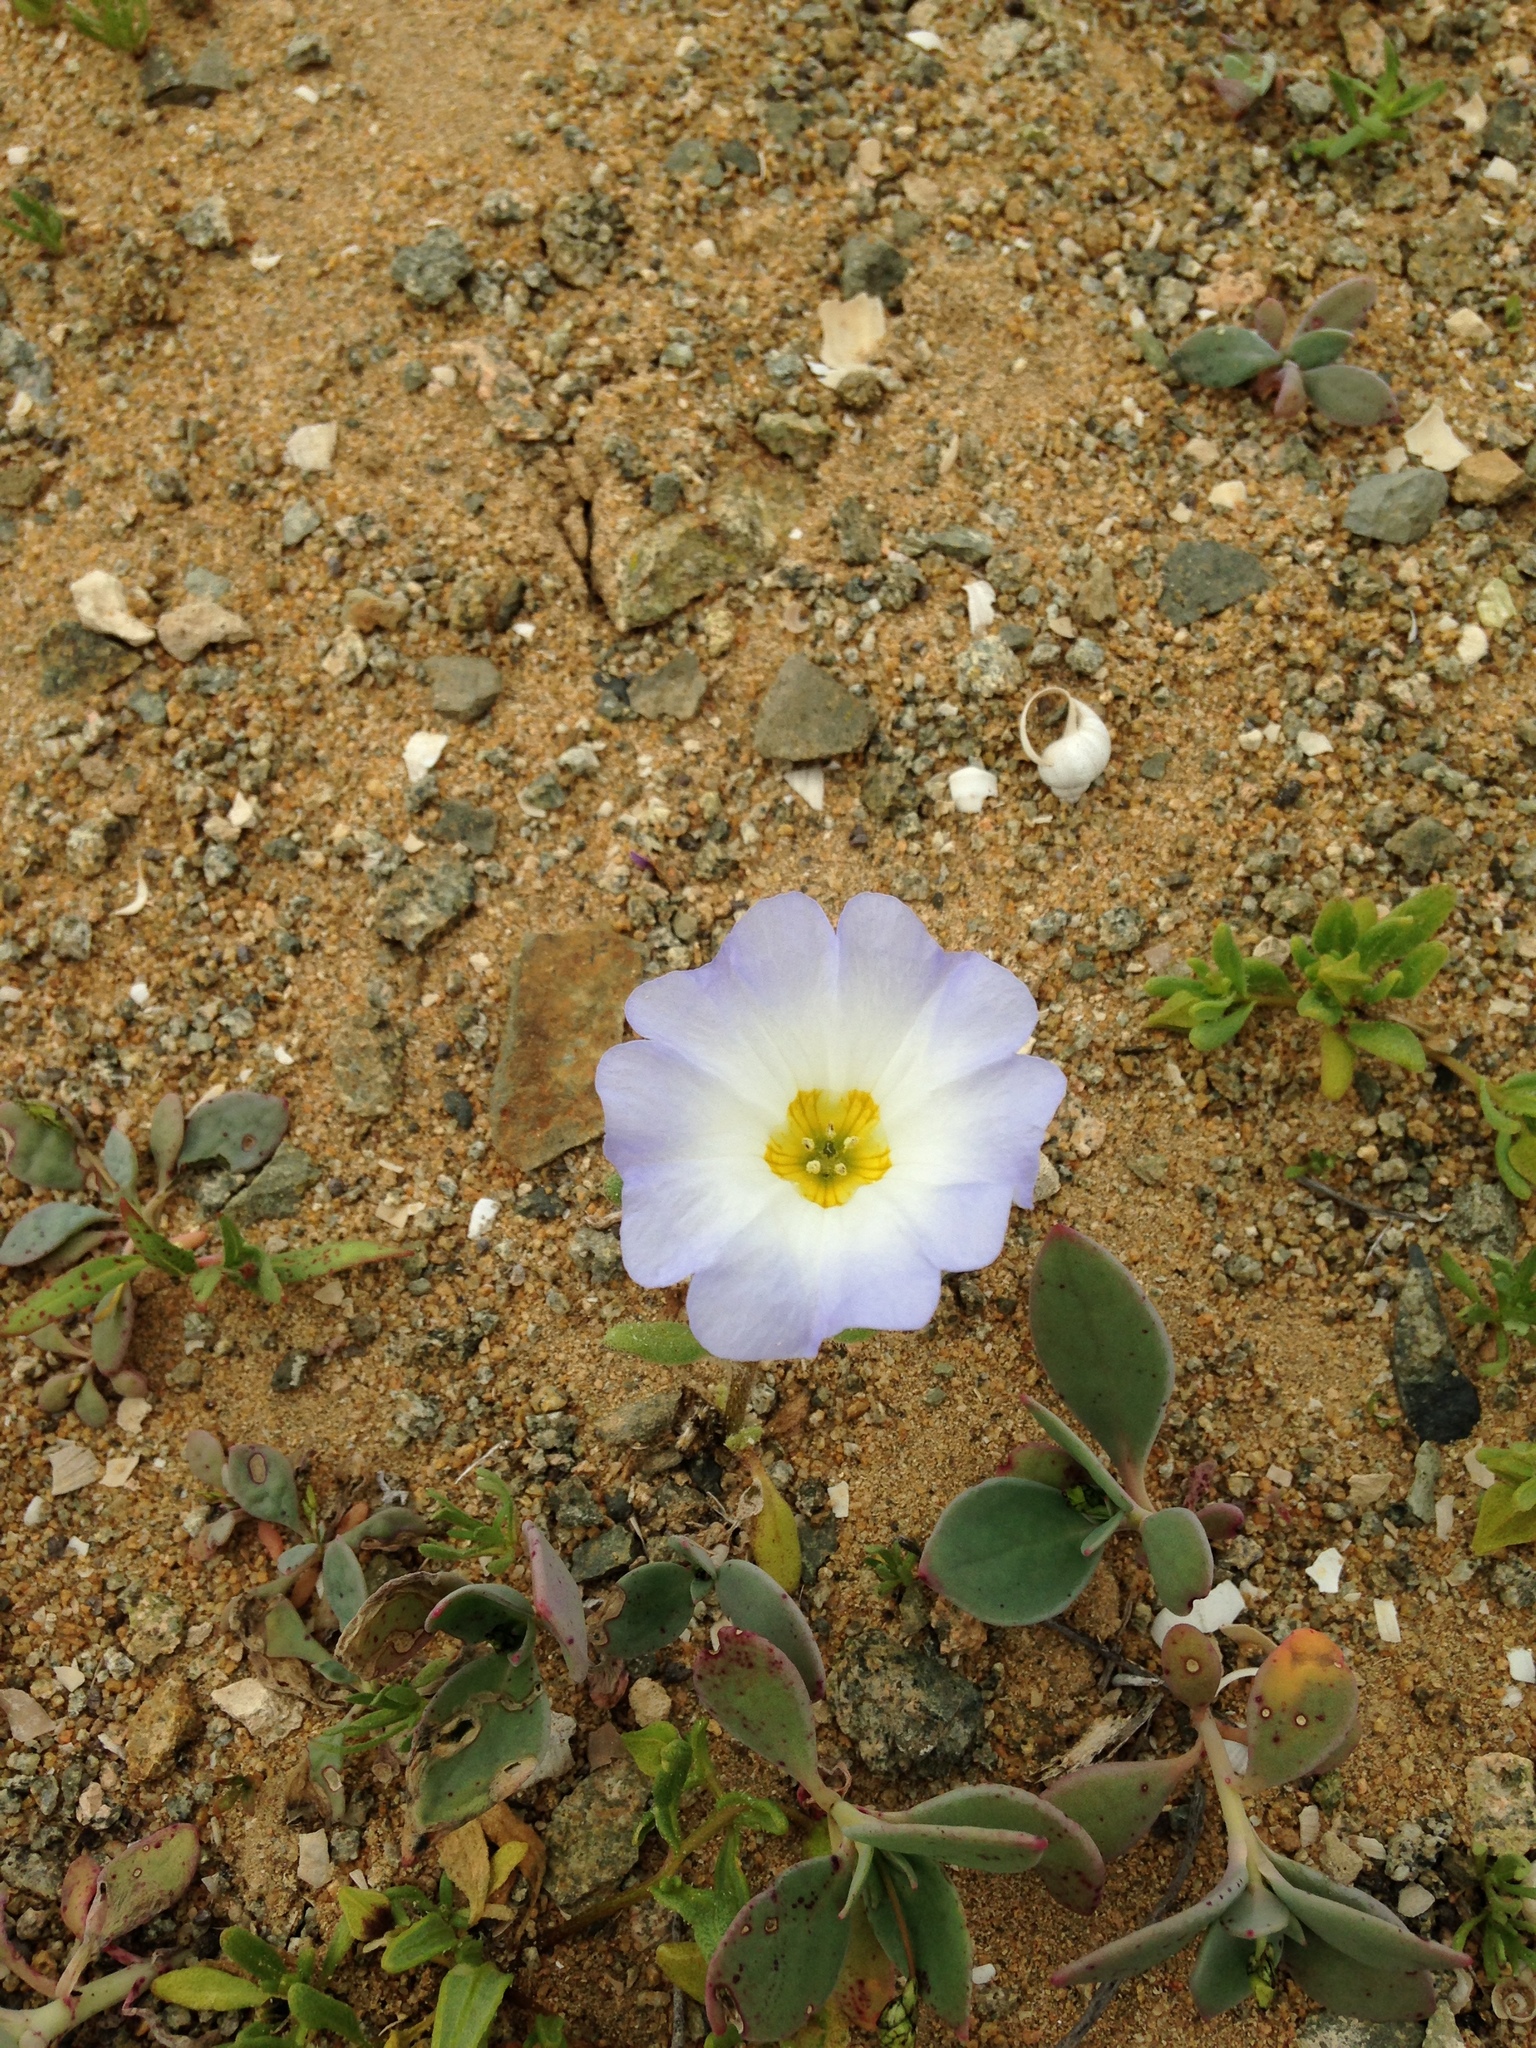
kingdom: Plantae
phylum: Tracheophyta
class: Magnoliopsida
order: Solanales
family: Solanaceae
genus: Nolana
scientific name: Nolana baccata
